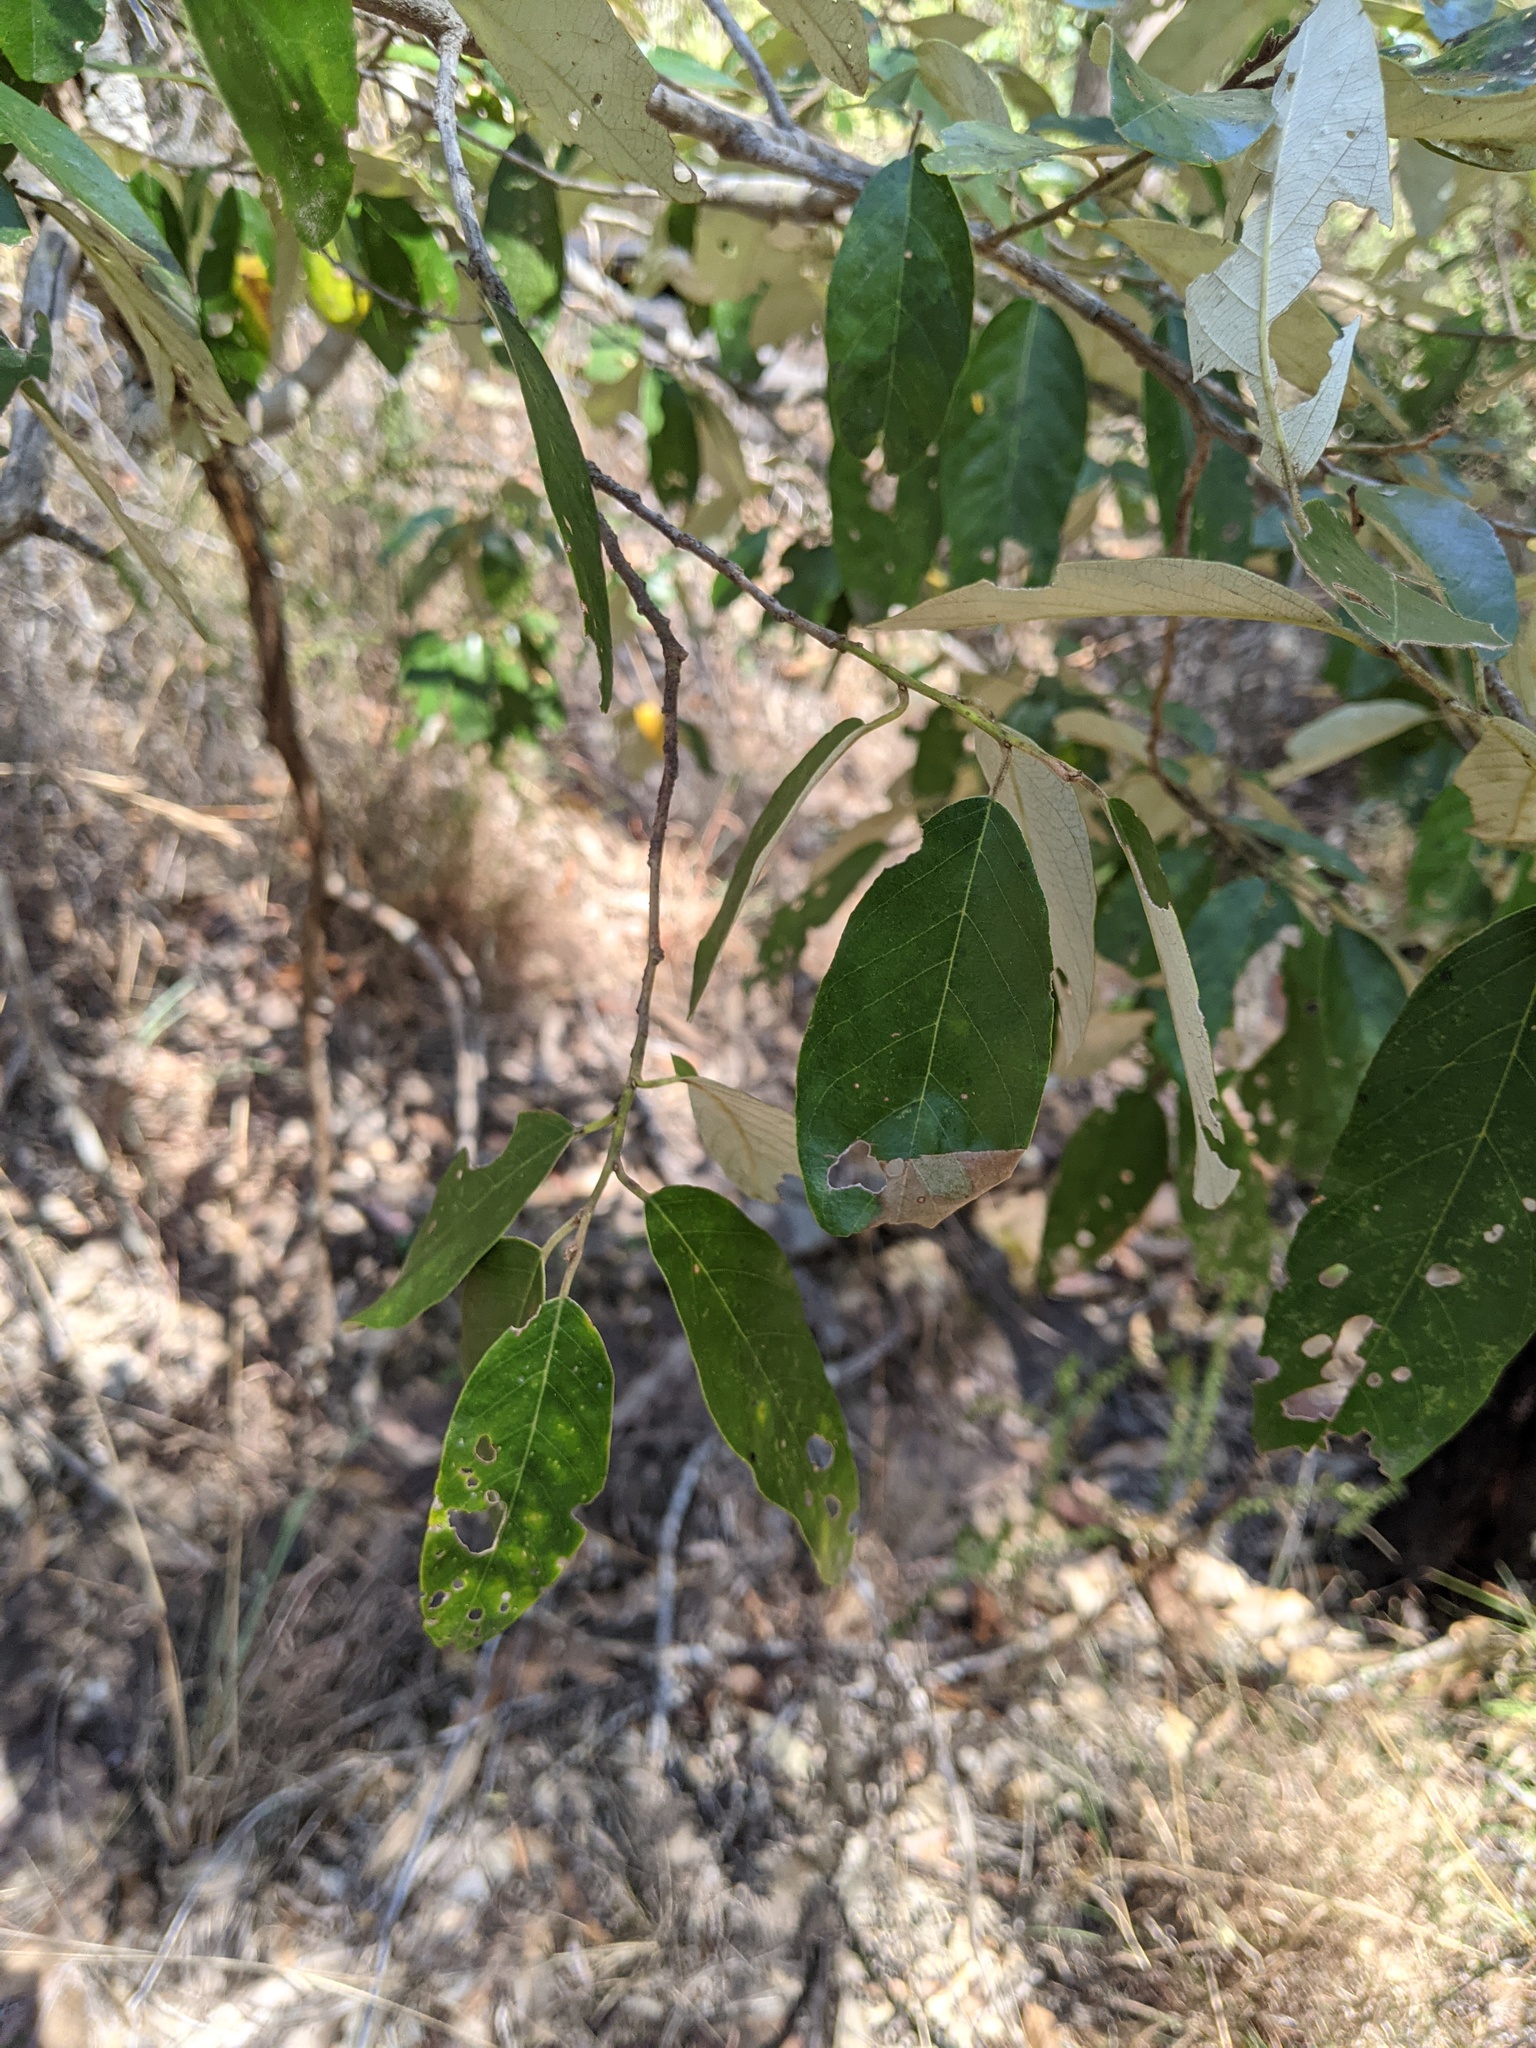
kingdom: Plantae
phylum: Tracheophyta
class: Magnoliopsida
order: Rosales
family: Rhamnaceae
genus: Alphitonia
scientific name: Alphitonia excelsa
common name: Red ash
